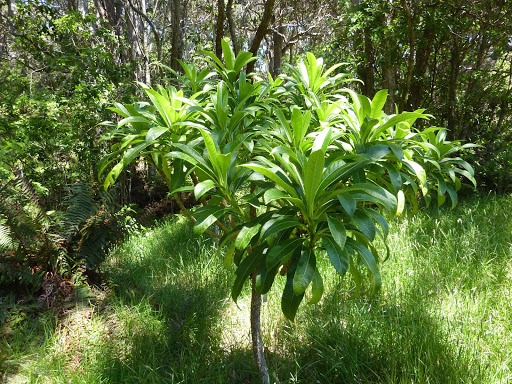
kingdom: Plantae
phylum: Tracheophyta
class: Magnoliopsida
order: Asterales
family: Campanulaceae
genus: Clermontia
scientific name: Clermontia lindseyana
